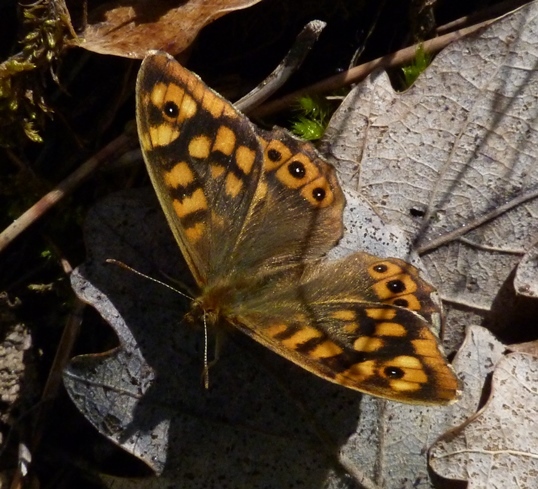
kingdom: Animalia
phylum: Arthropoda
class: Insecta
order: Lepidoptera
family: Nymphalidae
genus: Pararge
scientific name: Pararge aegeria
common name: Speckled wood
